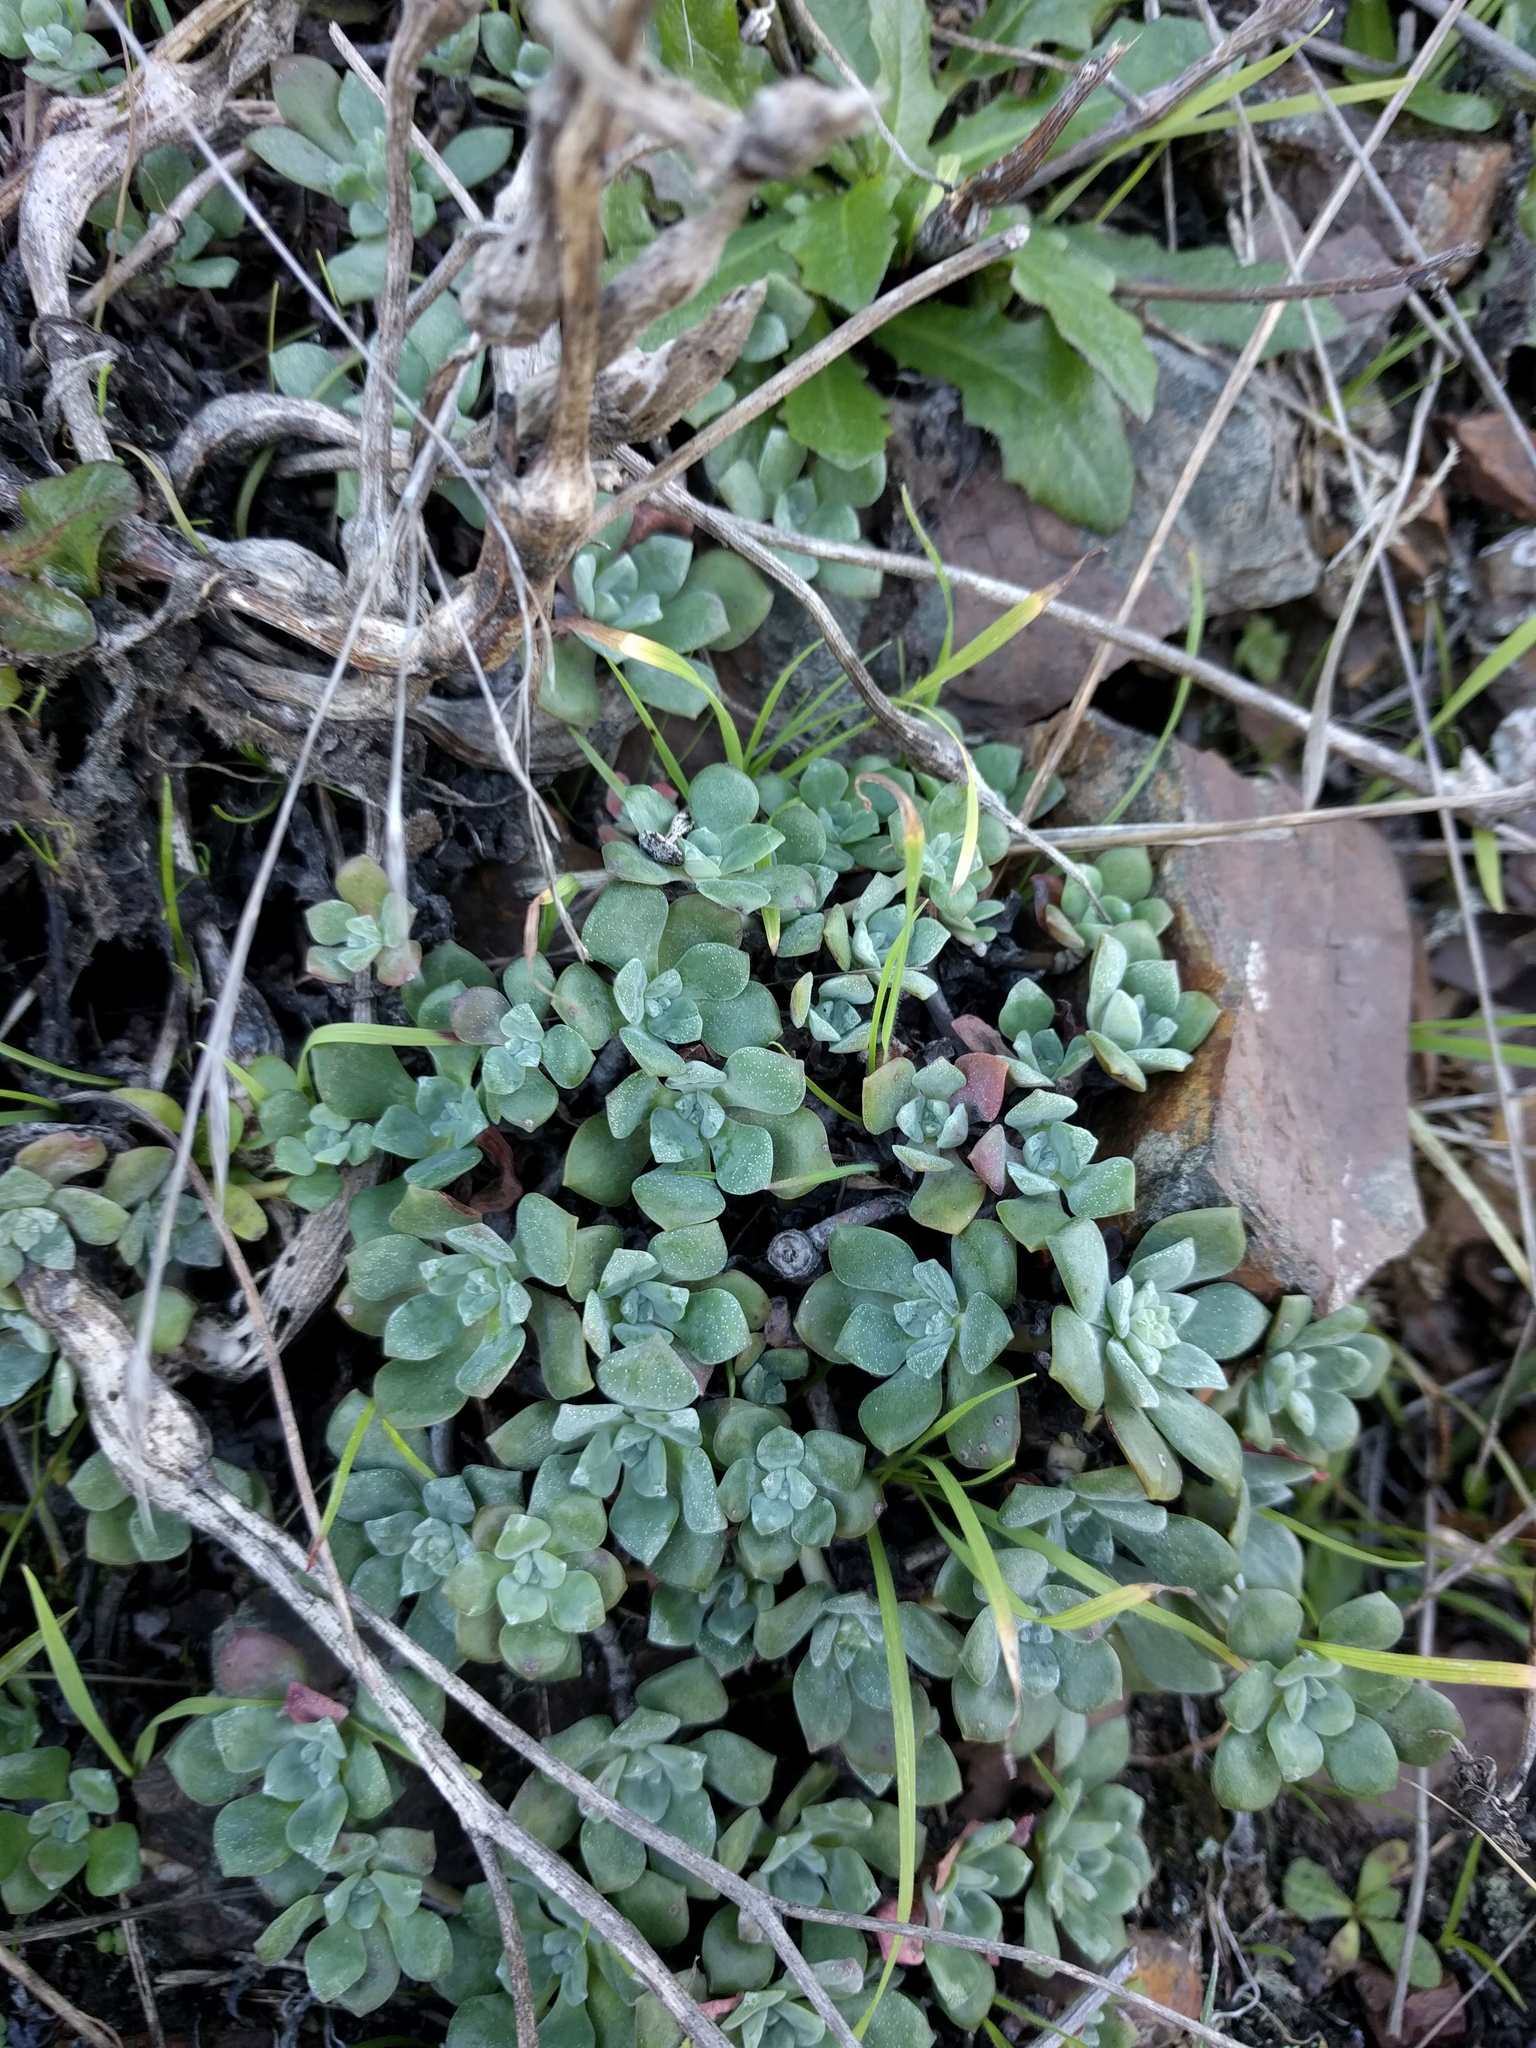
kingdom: Plantae
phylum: Tracheophyta
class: Magnoliopsida
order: Saxifragales
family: Crassulaceae
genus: Sedum
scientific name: Sedum spathulifolium
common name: Colorado stonecrop
